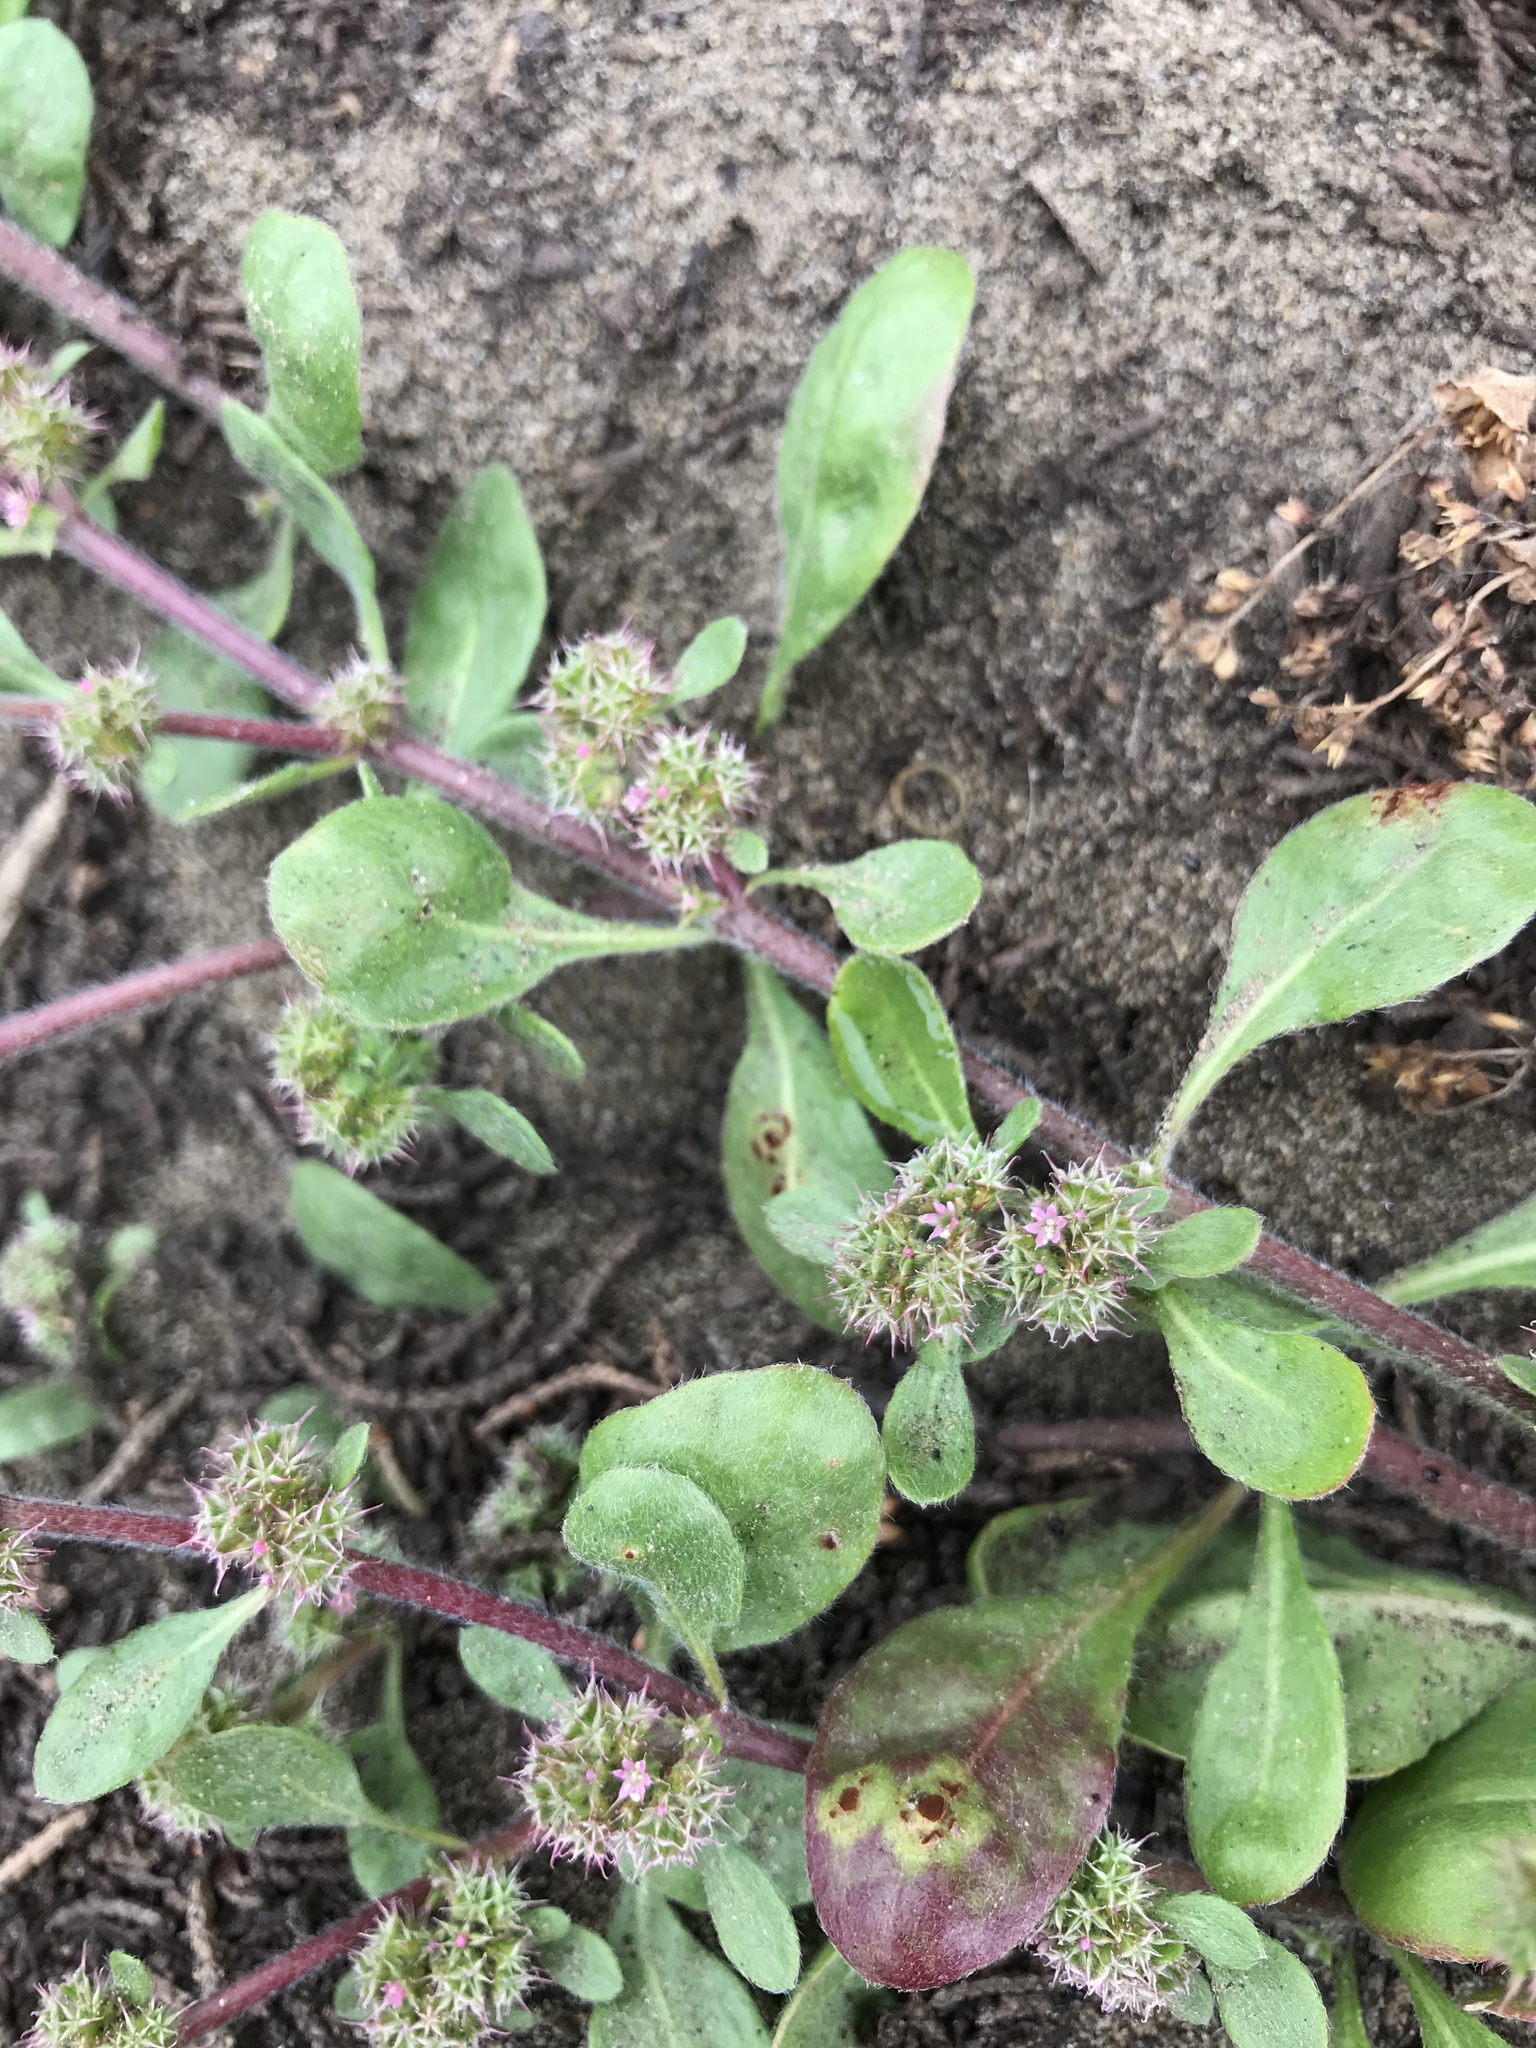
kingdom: Plantae
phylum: Tracheophyta
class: Magnoliopsida
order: Caryophyllales
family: Polygonaceae
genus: Chorizanthe
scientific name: Chorizanthe cuspidata
